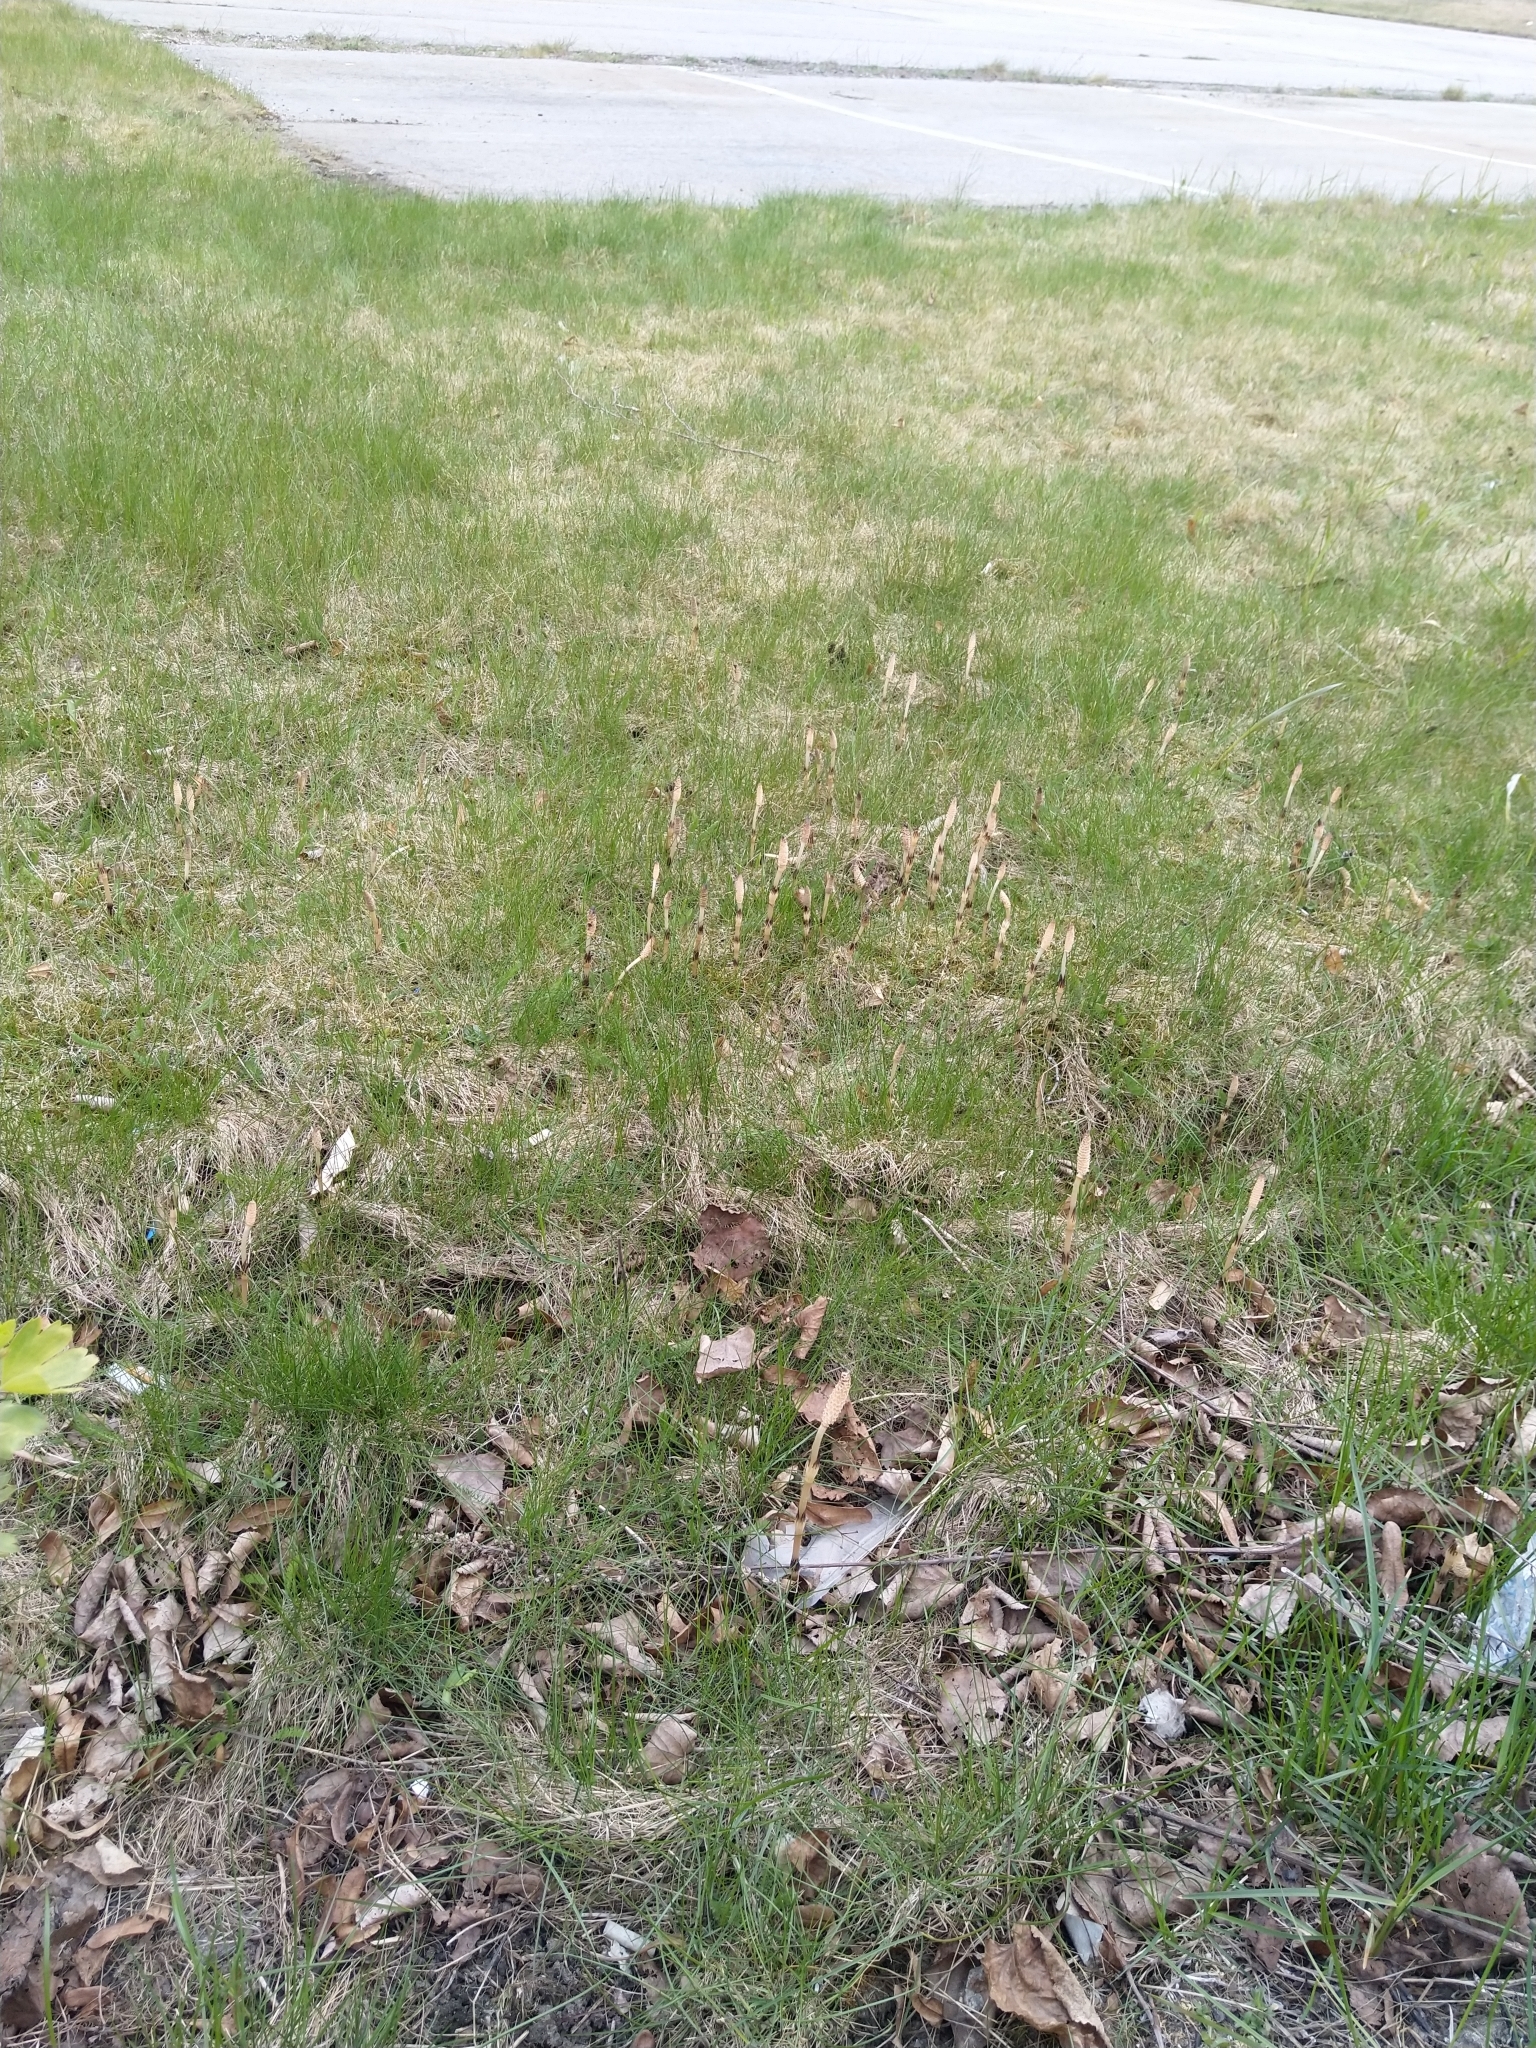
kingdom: Plantae
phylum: Tracheophyta
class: Polypodiopsida
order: Equisetales
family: Equisetaceae
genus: Equisetum
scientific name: Equisetum arvense
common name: Field horsetail
